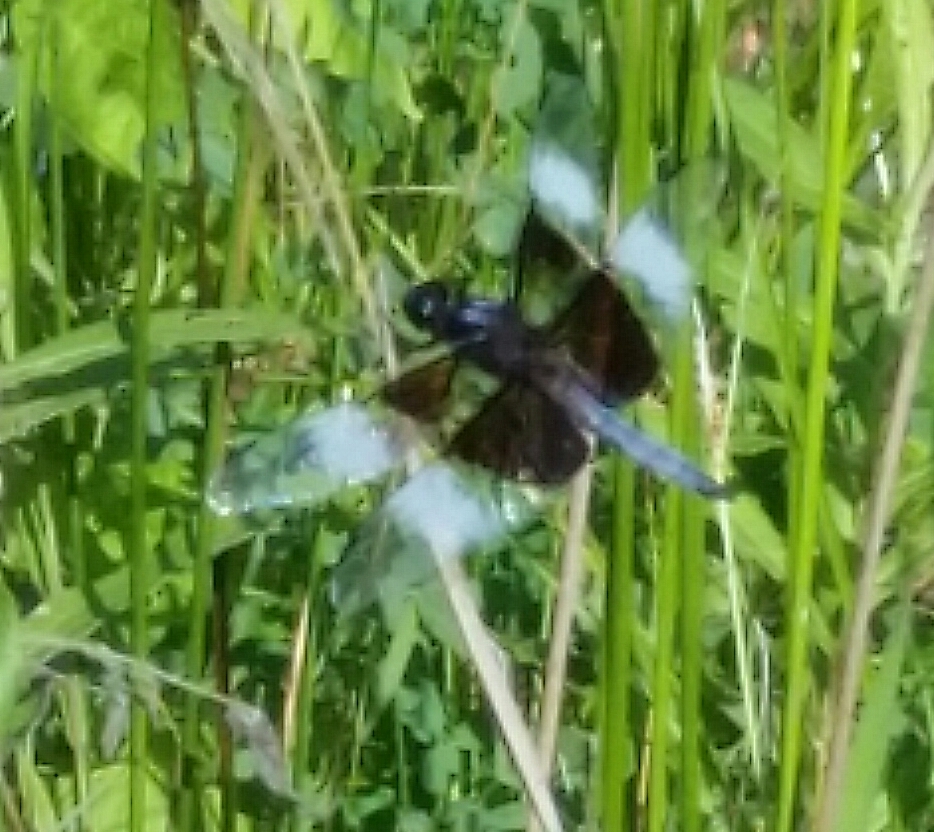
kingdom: Animalia
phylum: Arthropoda
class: Insecta
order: Odonata
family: Libellulidae
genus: Libellula
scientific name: Libellula luctuosa
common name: Widow skimmer
